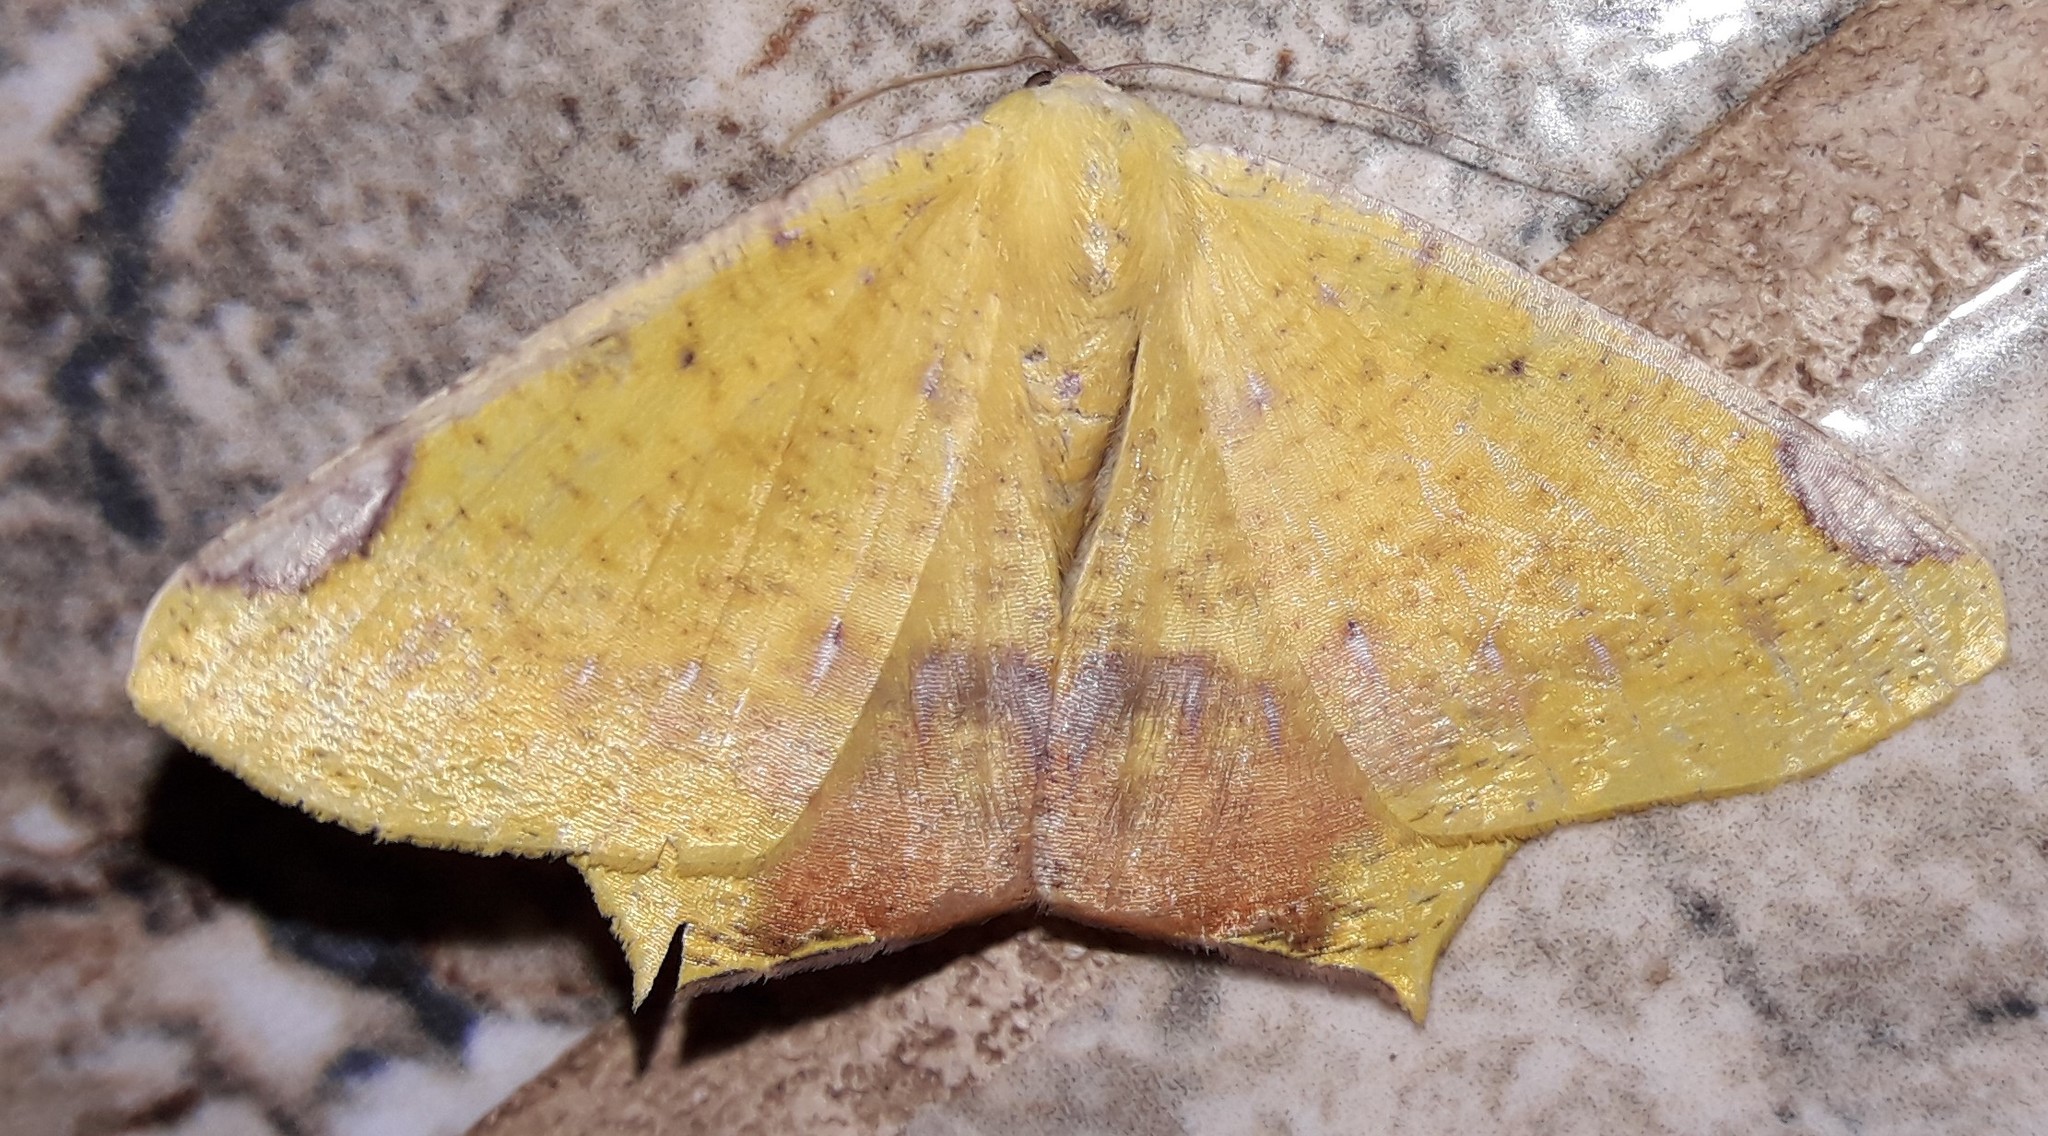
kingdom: Animalia
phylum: Arthropoda
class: Insecta
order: Lepidoptera
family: Geometridae
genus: Nepheloleuca
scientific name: Nepheloleuca politia
